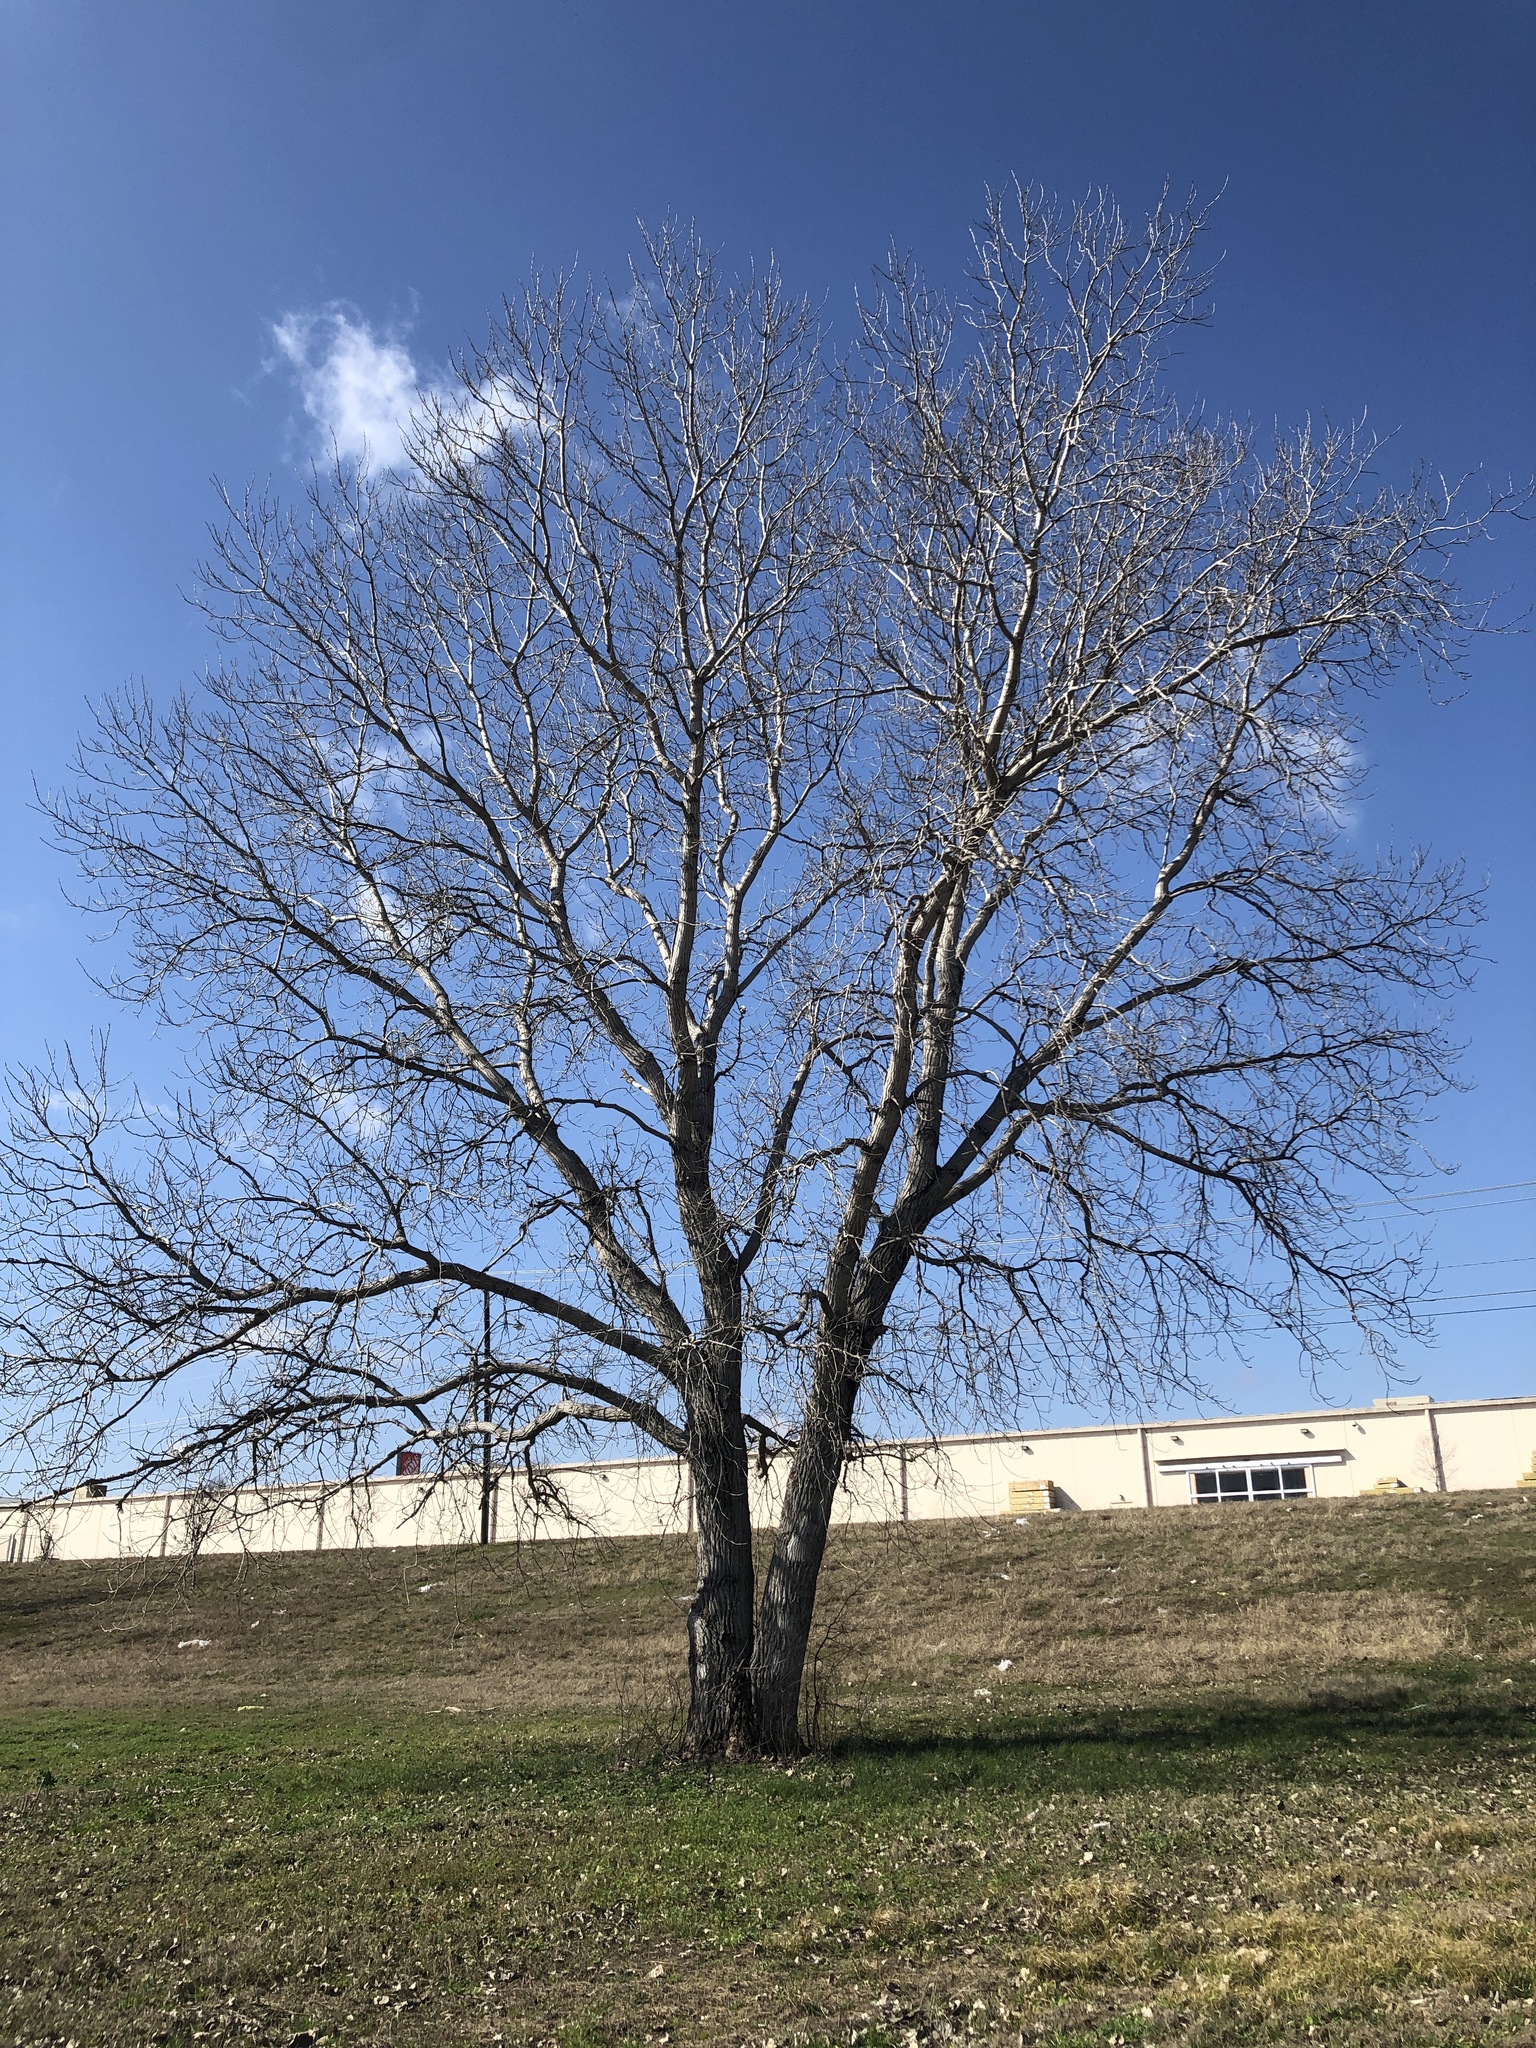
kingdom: Plantae
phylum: Tracheophyta
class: Magnoliopsida
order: Malpighiales
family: Salicaceae
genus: Populus
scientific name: Populus deltoides
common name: Eastern cottonwood
